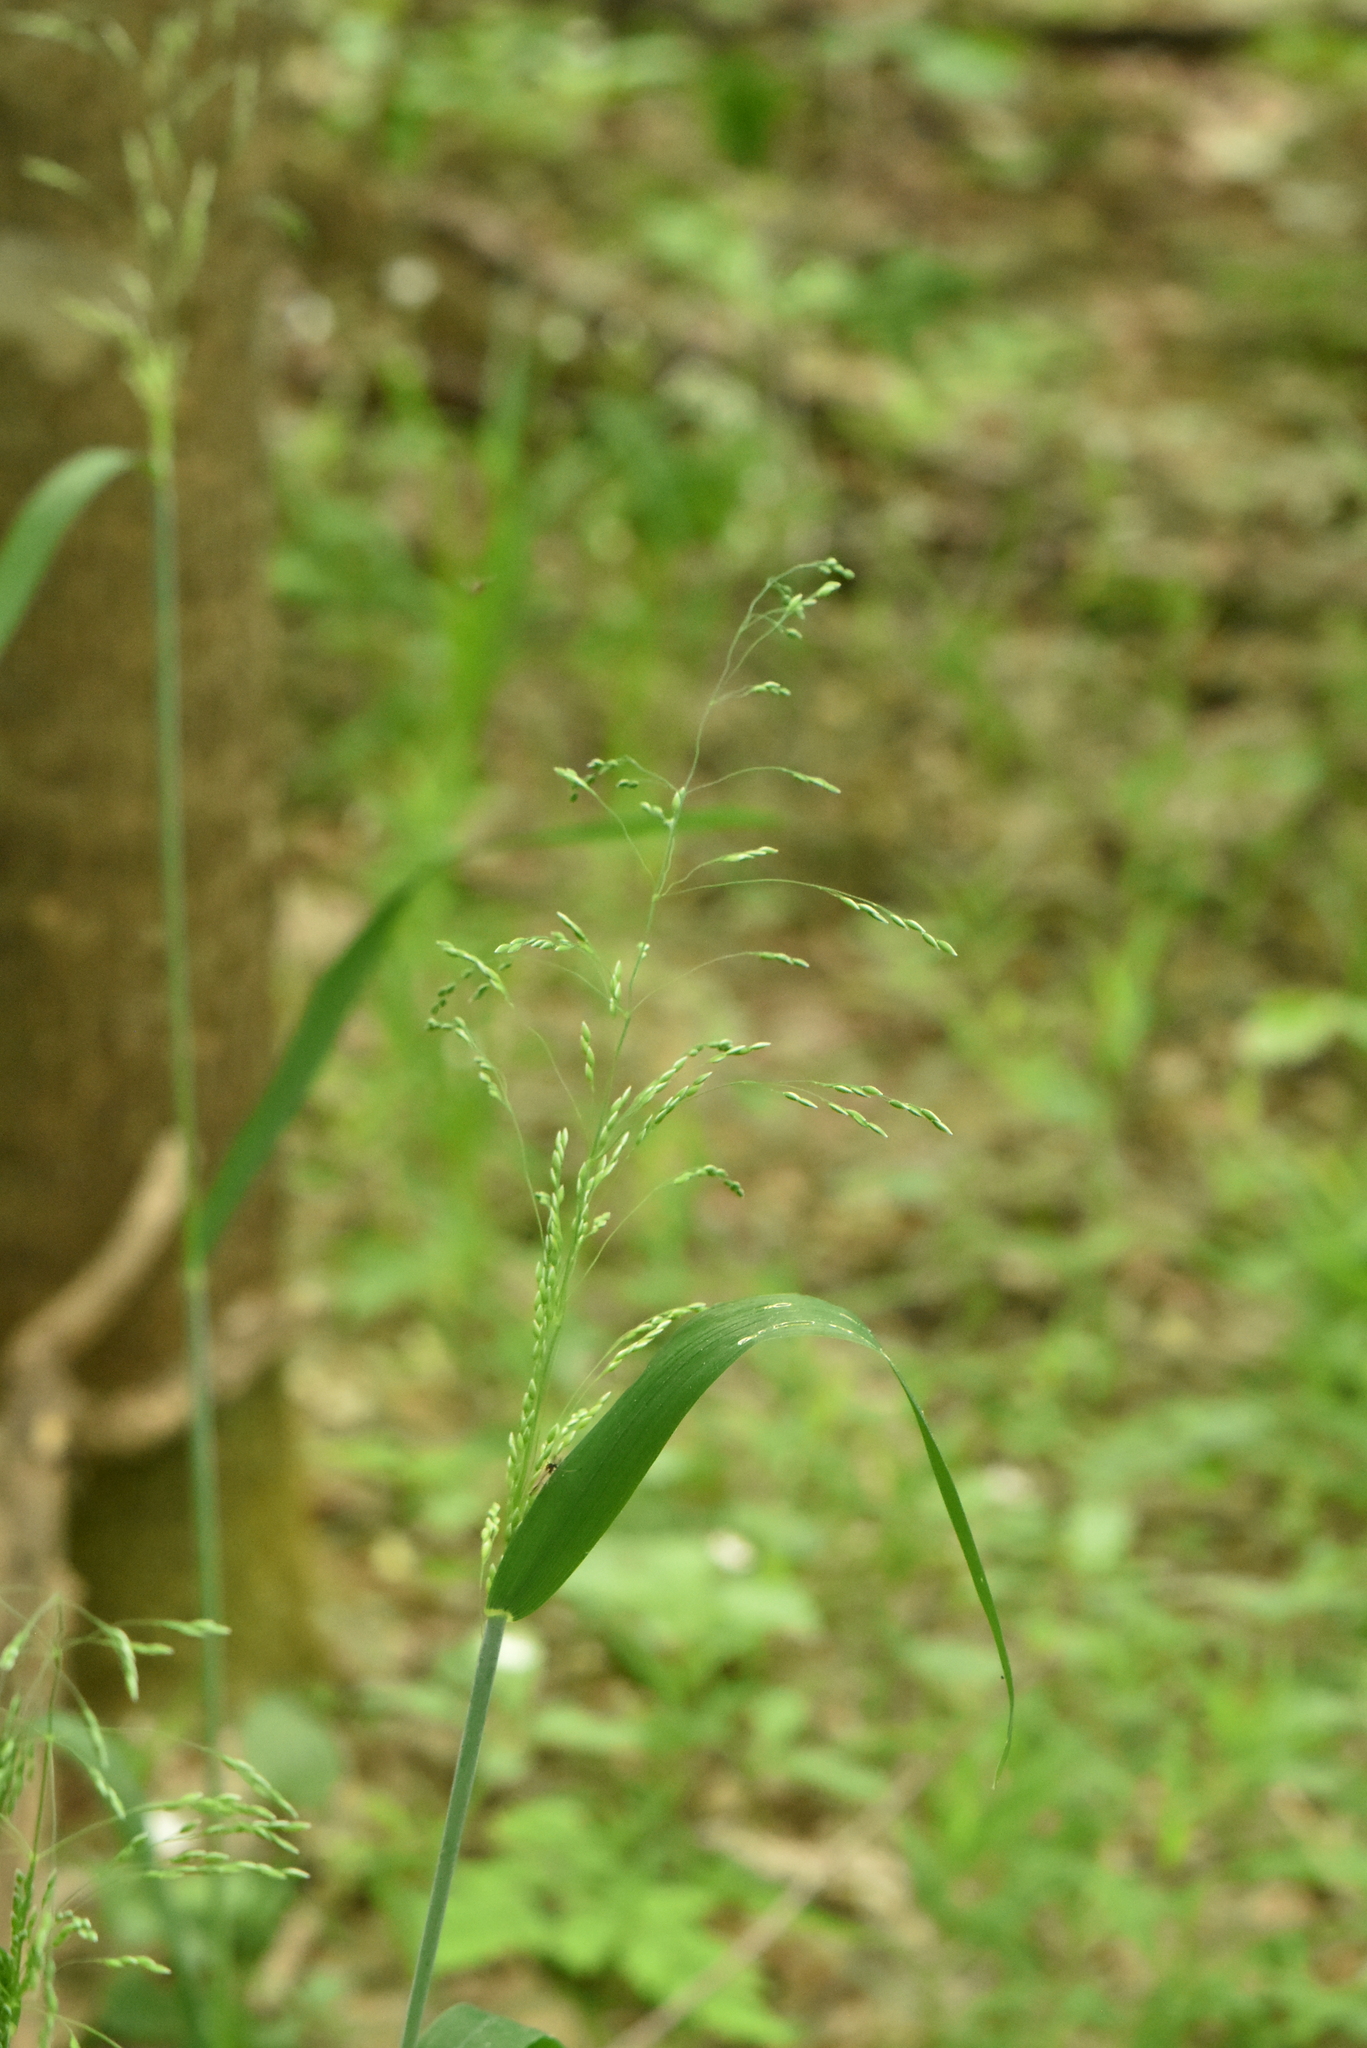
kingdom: Plantae
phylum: Tracheophyta
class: Liliopsida
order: Poales
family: Poaceae
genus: Milium
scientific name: Milium effusum
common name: Wood millet
